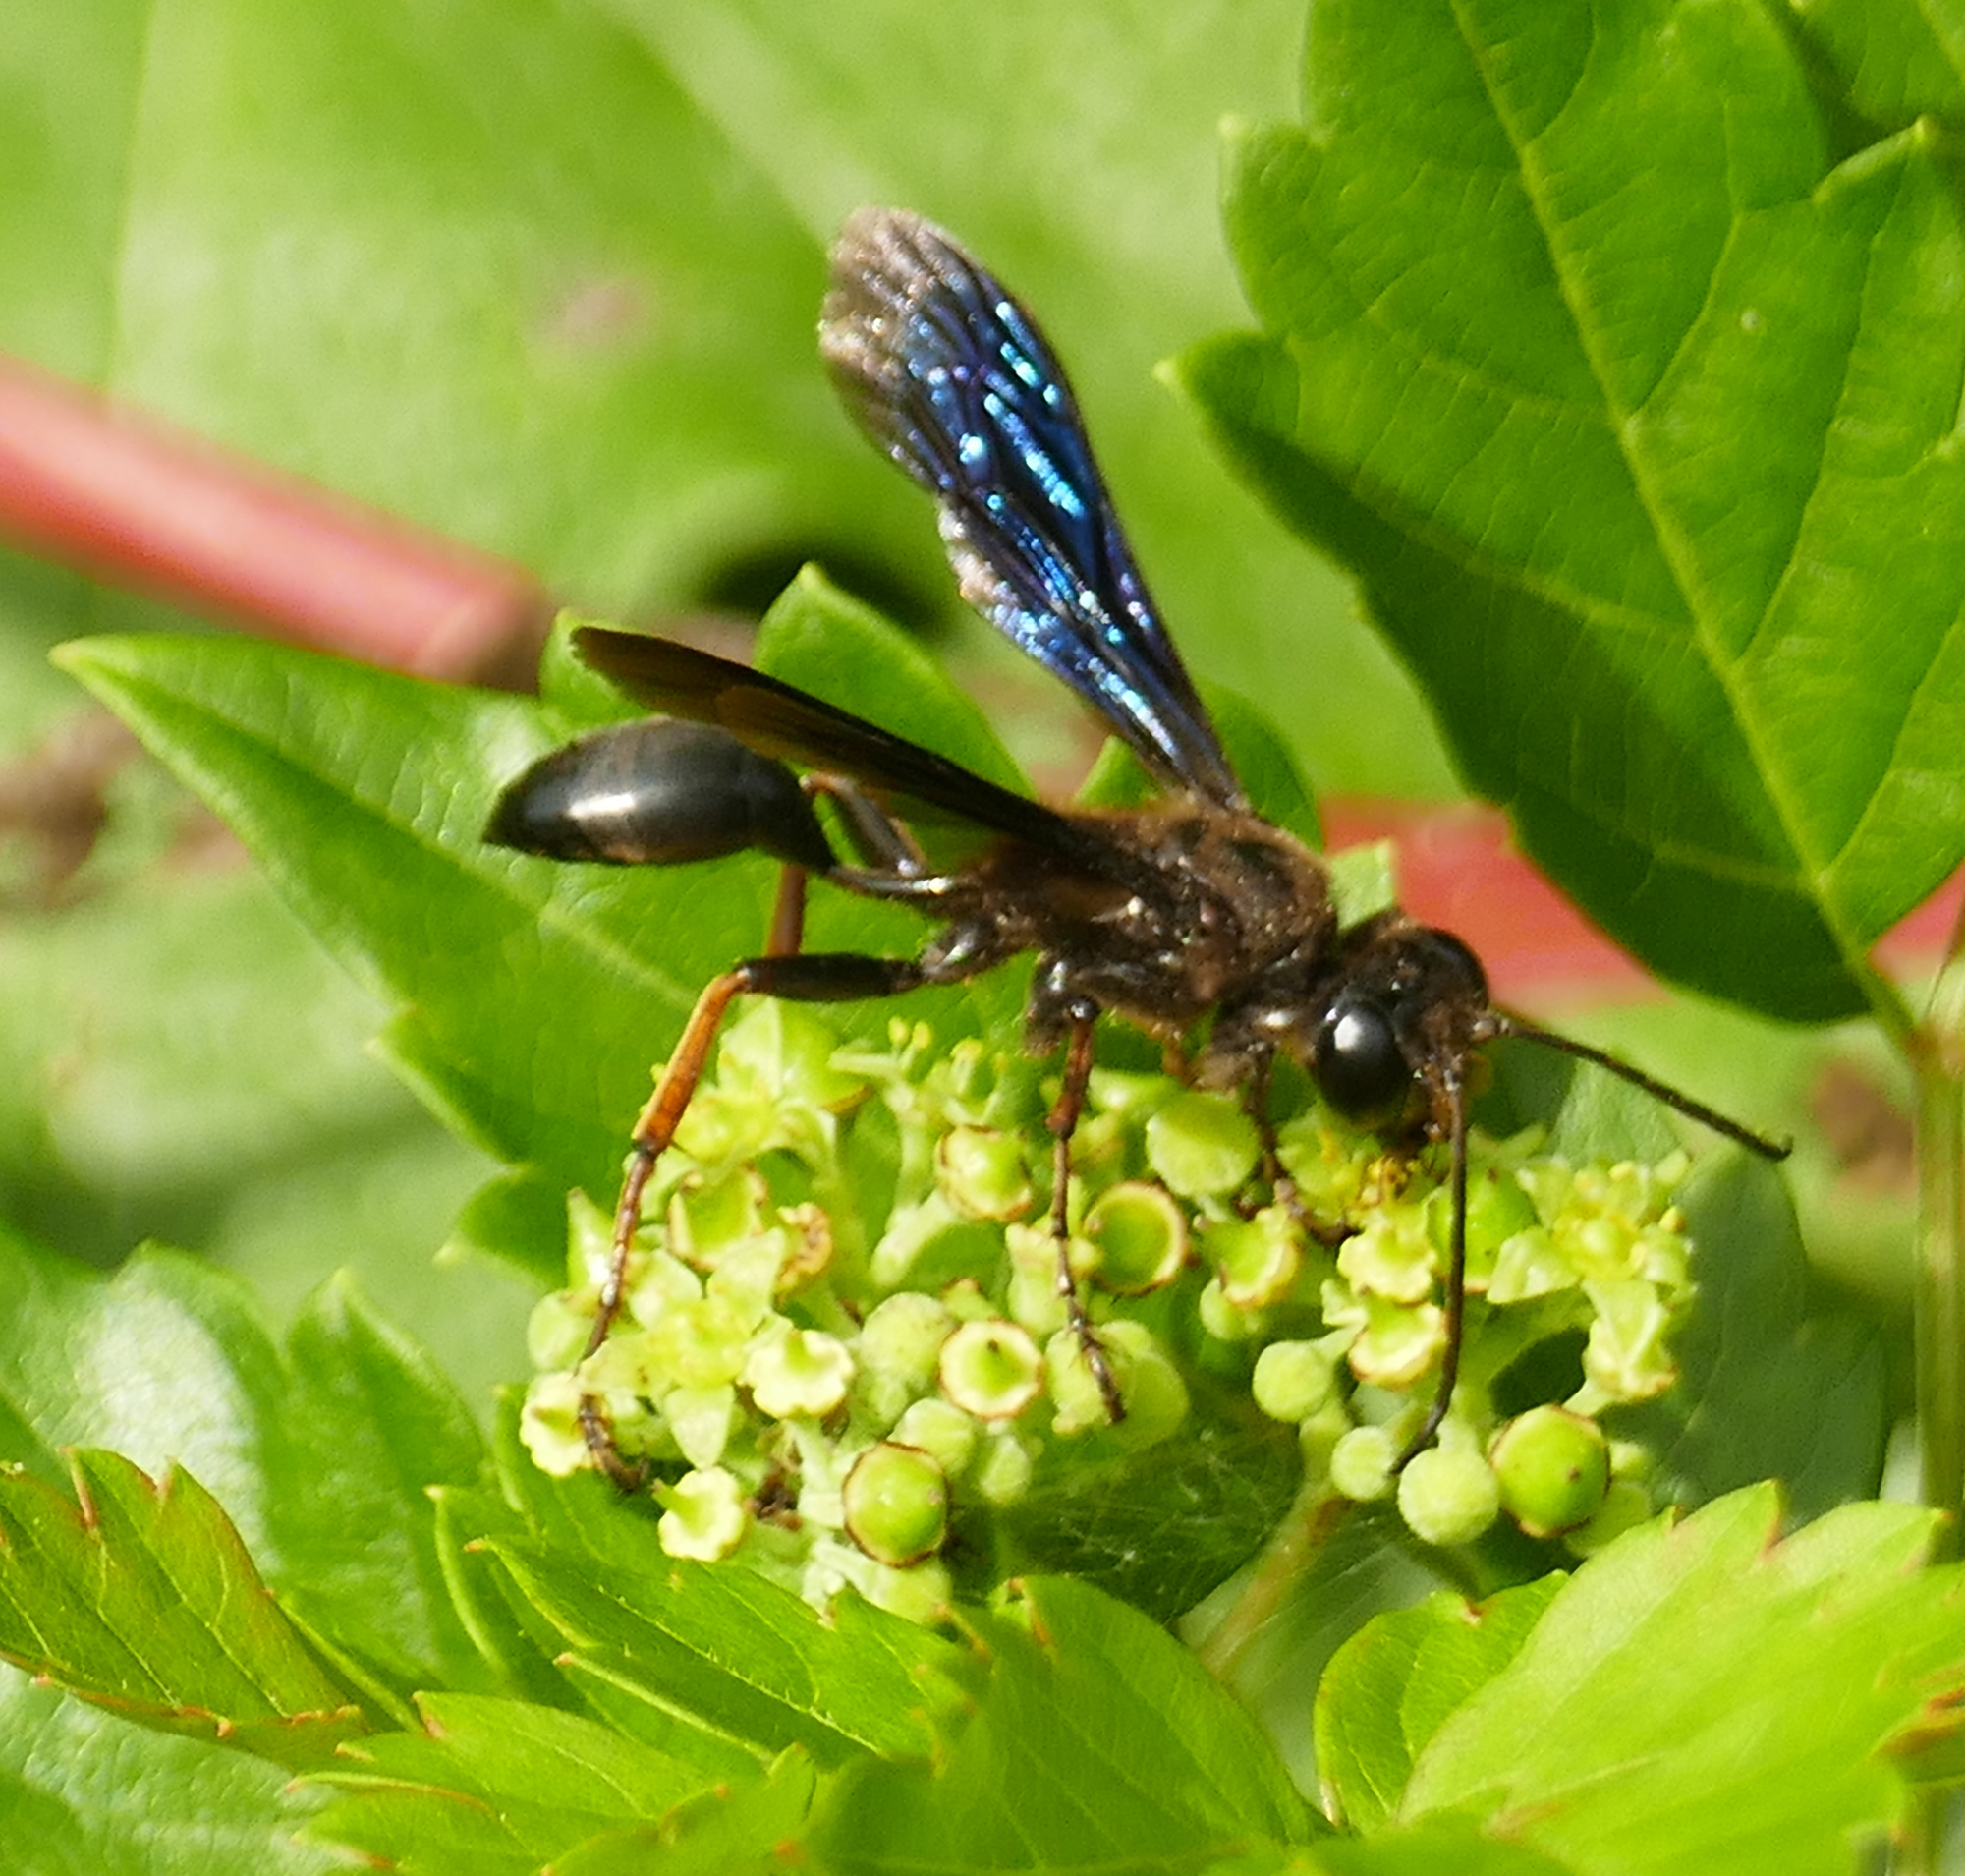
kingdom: Animalia
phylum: Arthropoda
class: Insecta
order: Hymenoptera
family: Sphecidae
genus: Isodontia
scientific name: Isodontia auripes
